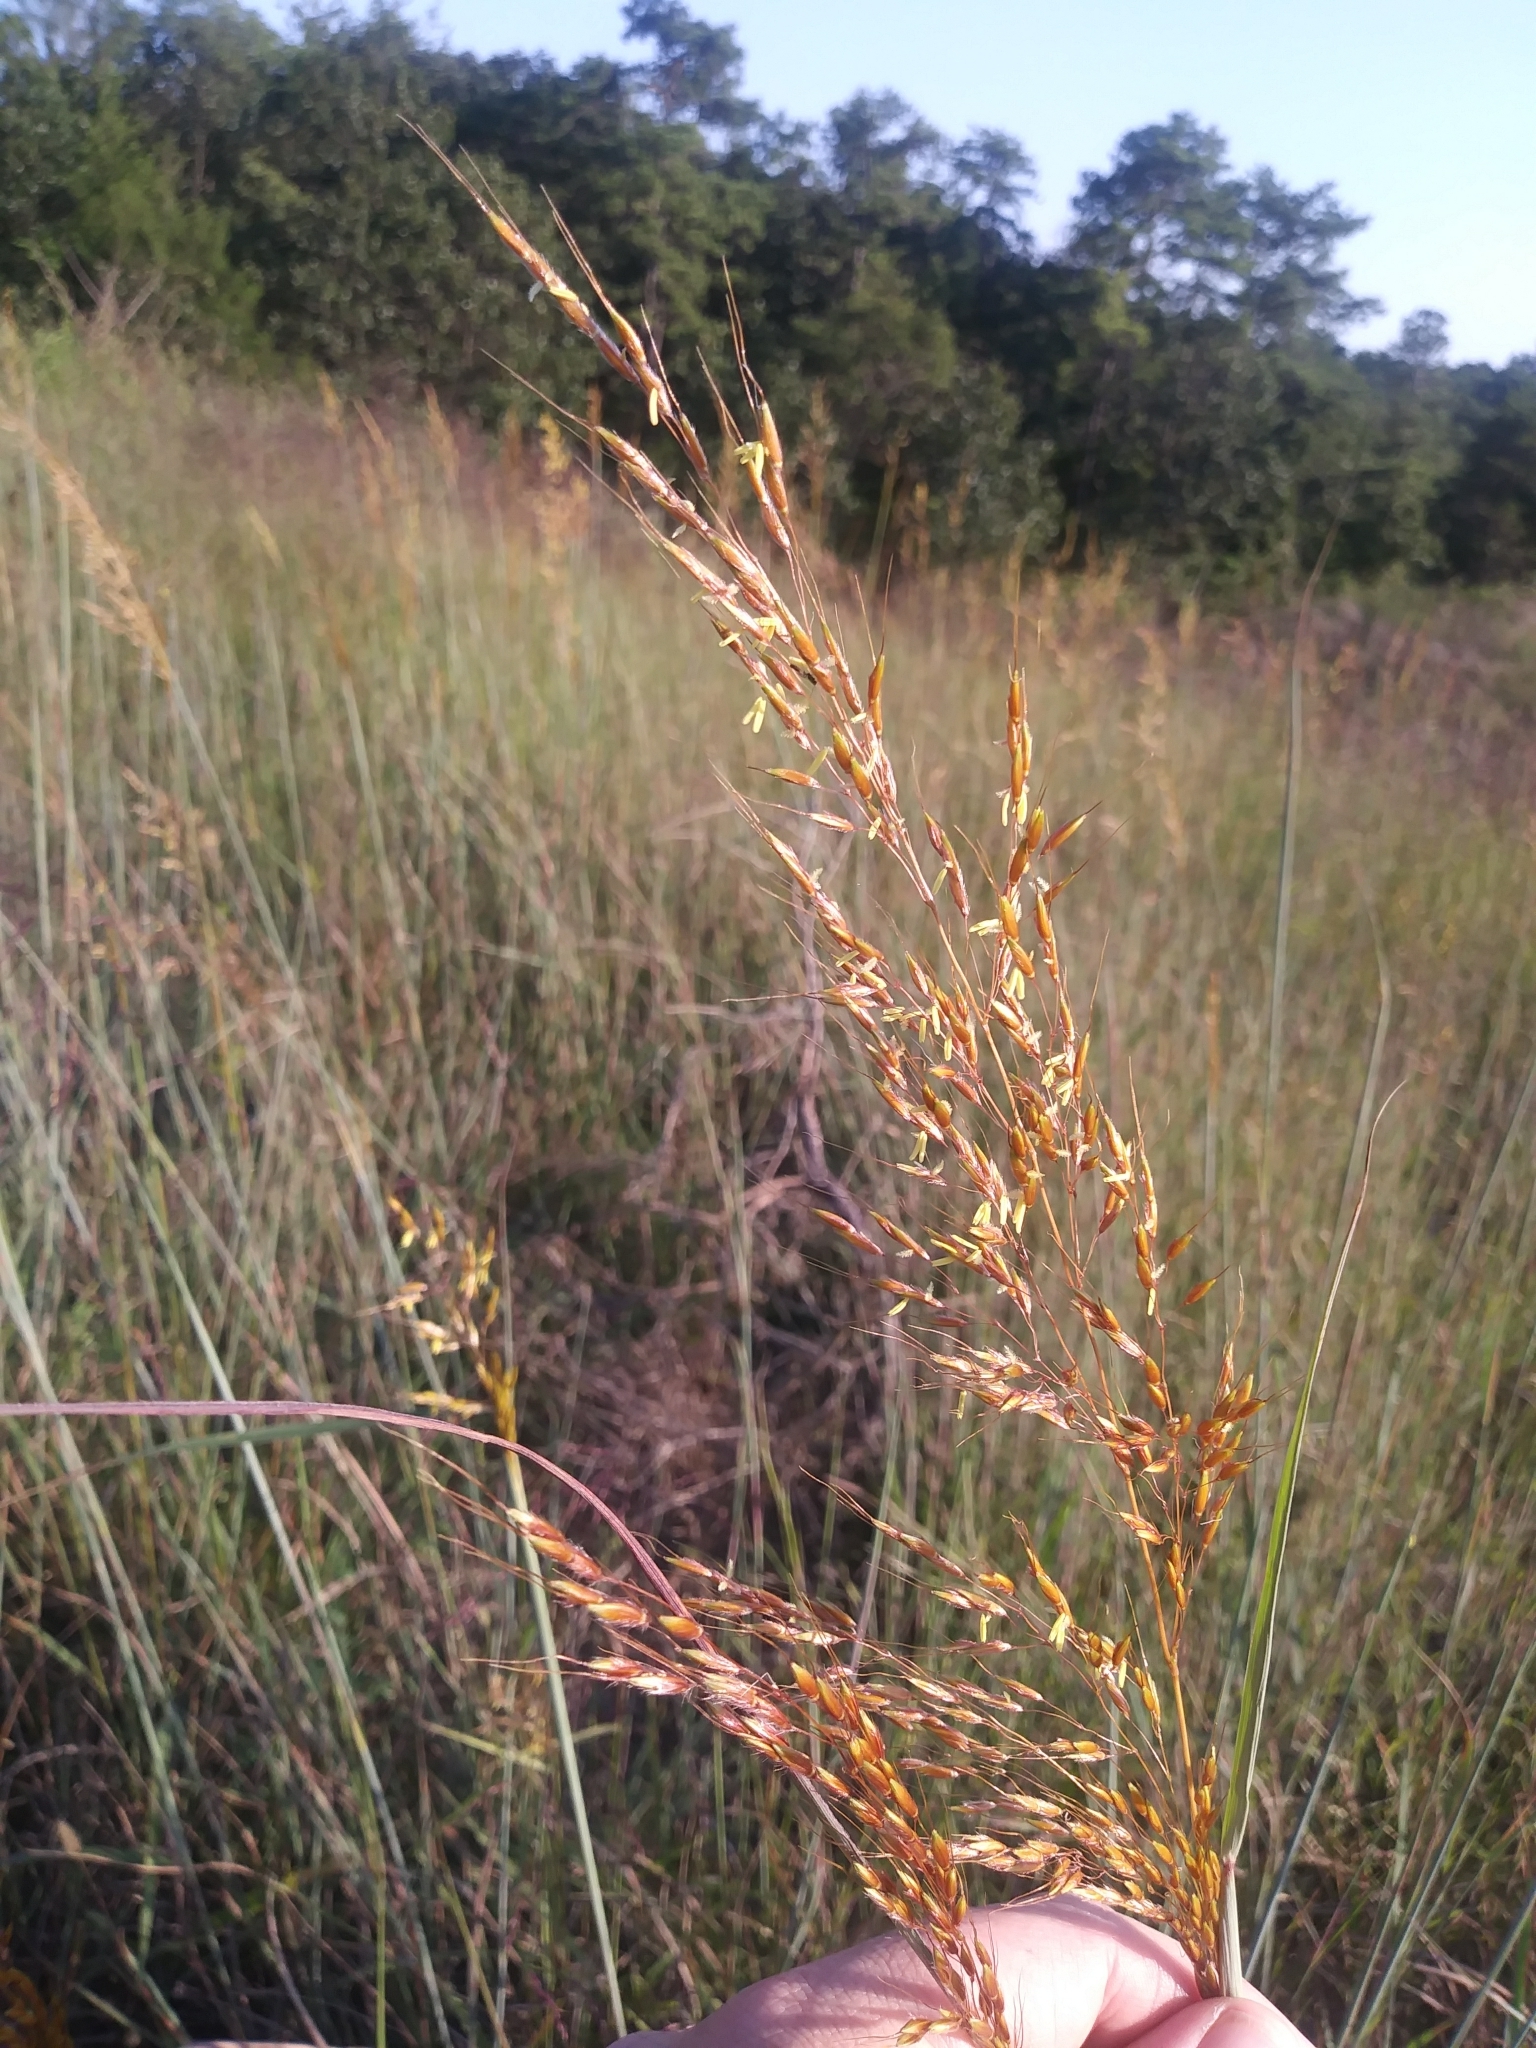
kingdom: Plantae
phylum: Tracheophyta
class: Liliopsida
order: Poales
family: Poaceae
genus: Sorghastrum
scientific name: Sorghastrum nutans
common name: Indian grass
